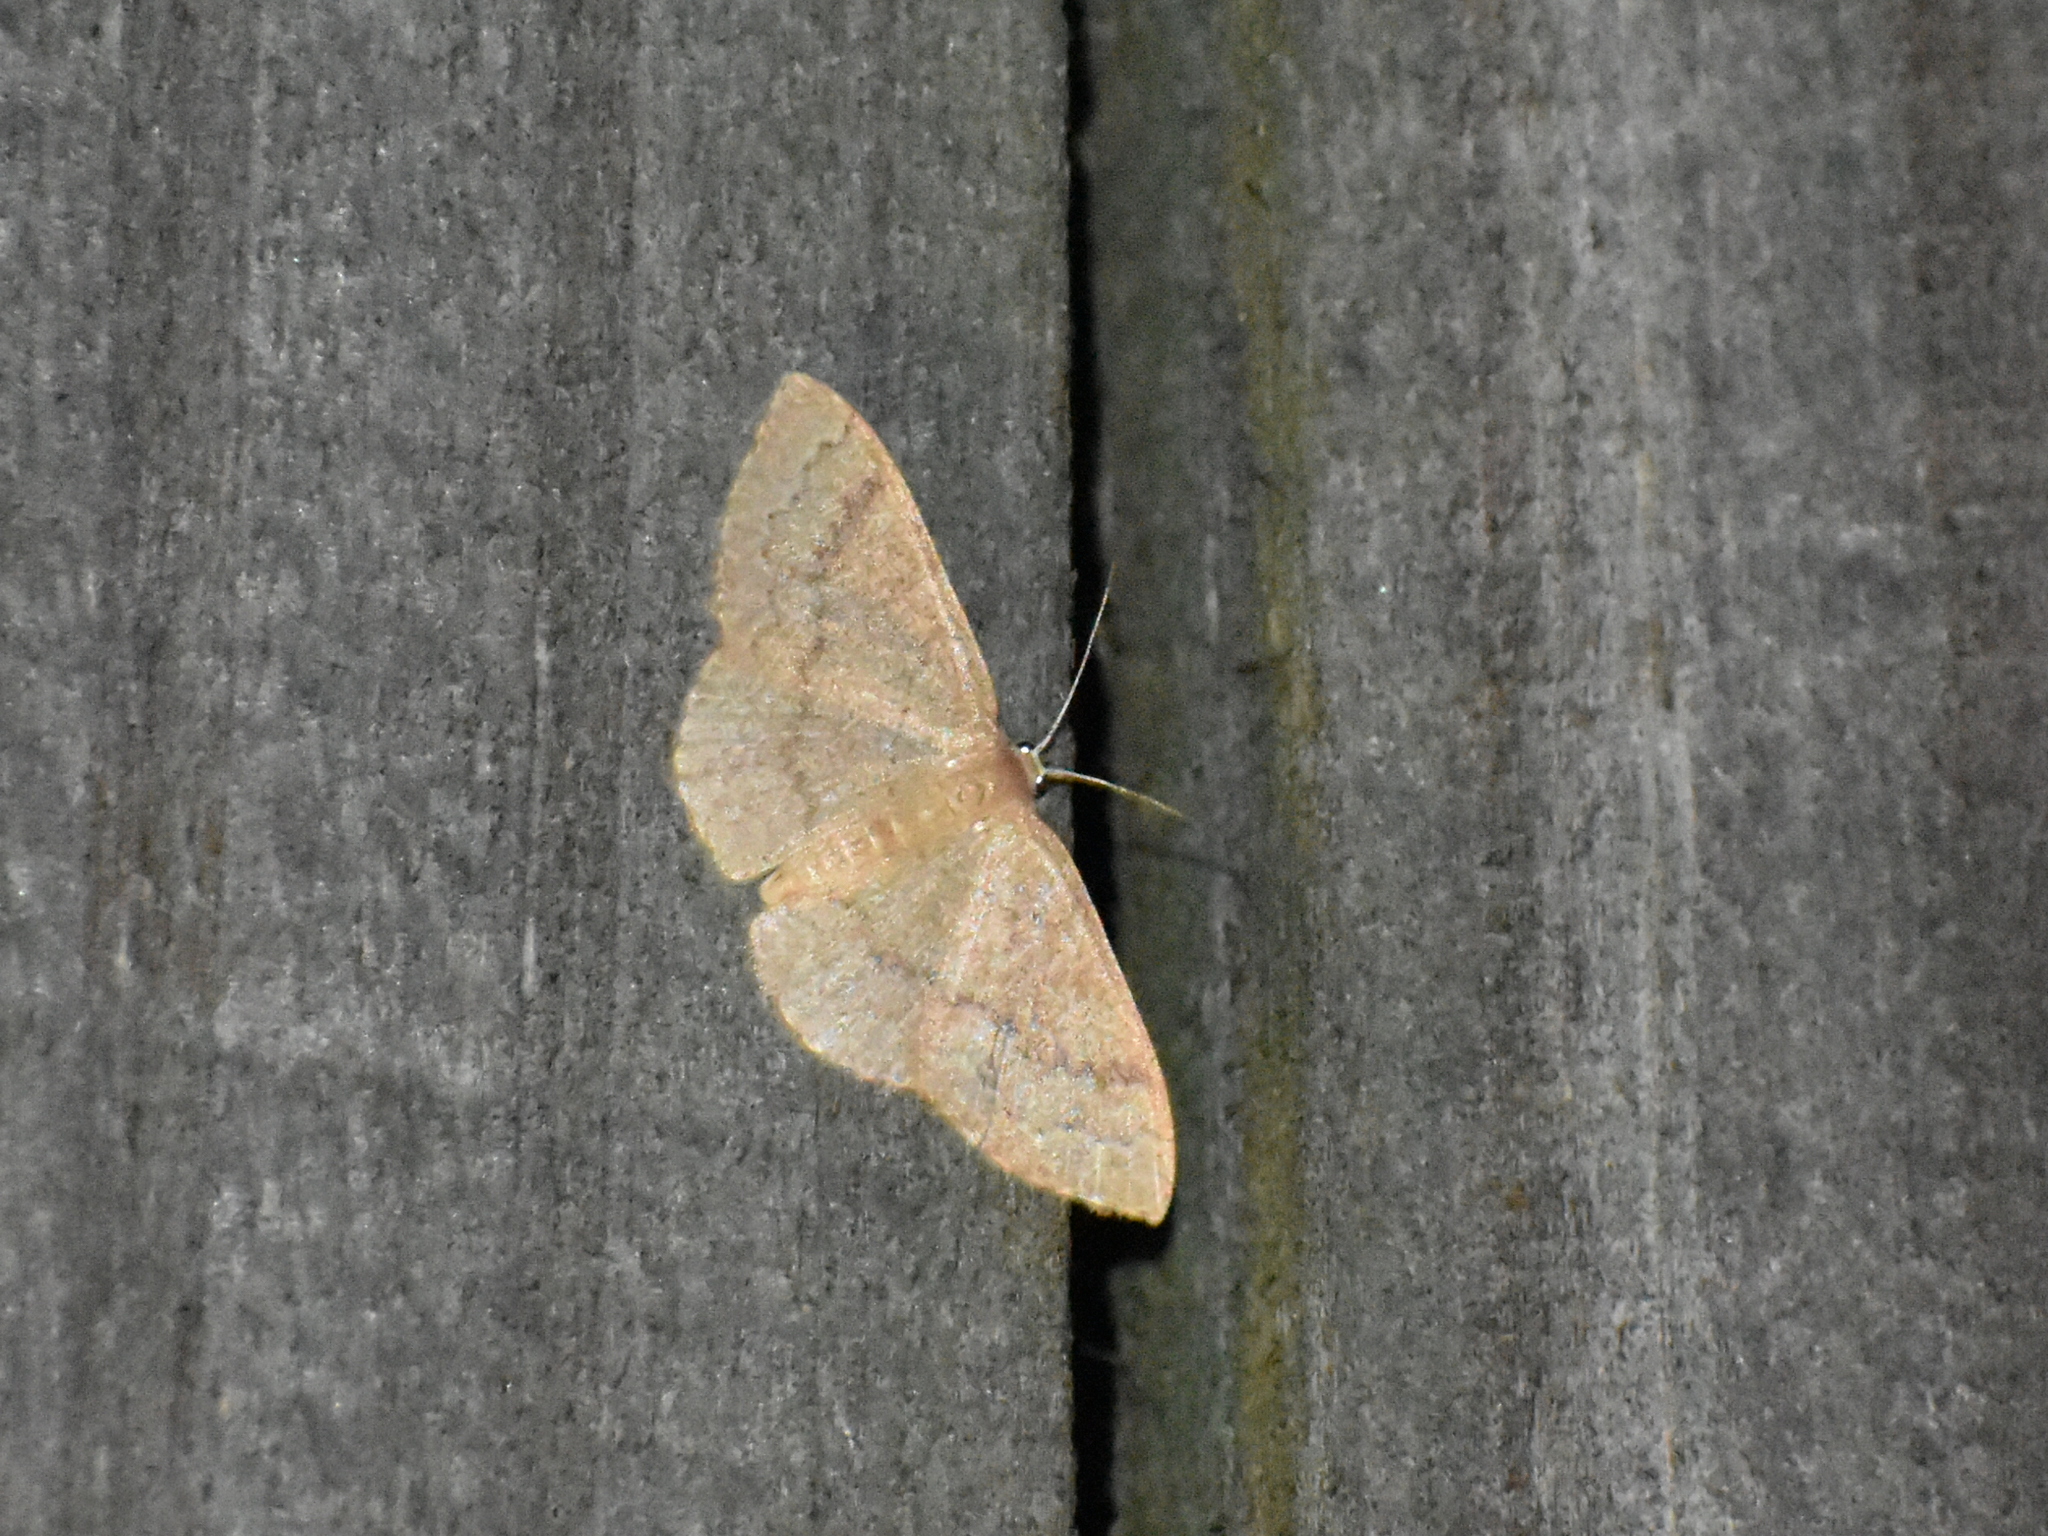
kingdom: Animalia
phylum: Arthropoda
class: Insecta
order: Lepidoptera
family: Geometridae
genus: Pleuroprucha
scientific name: Pleuroprucha insulsaria
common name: Common tan wave
